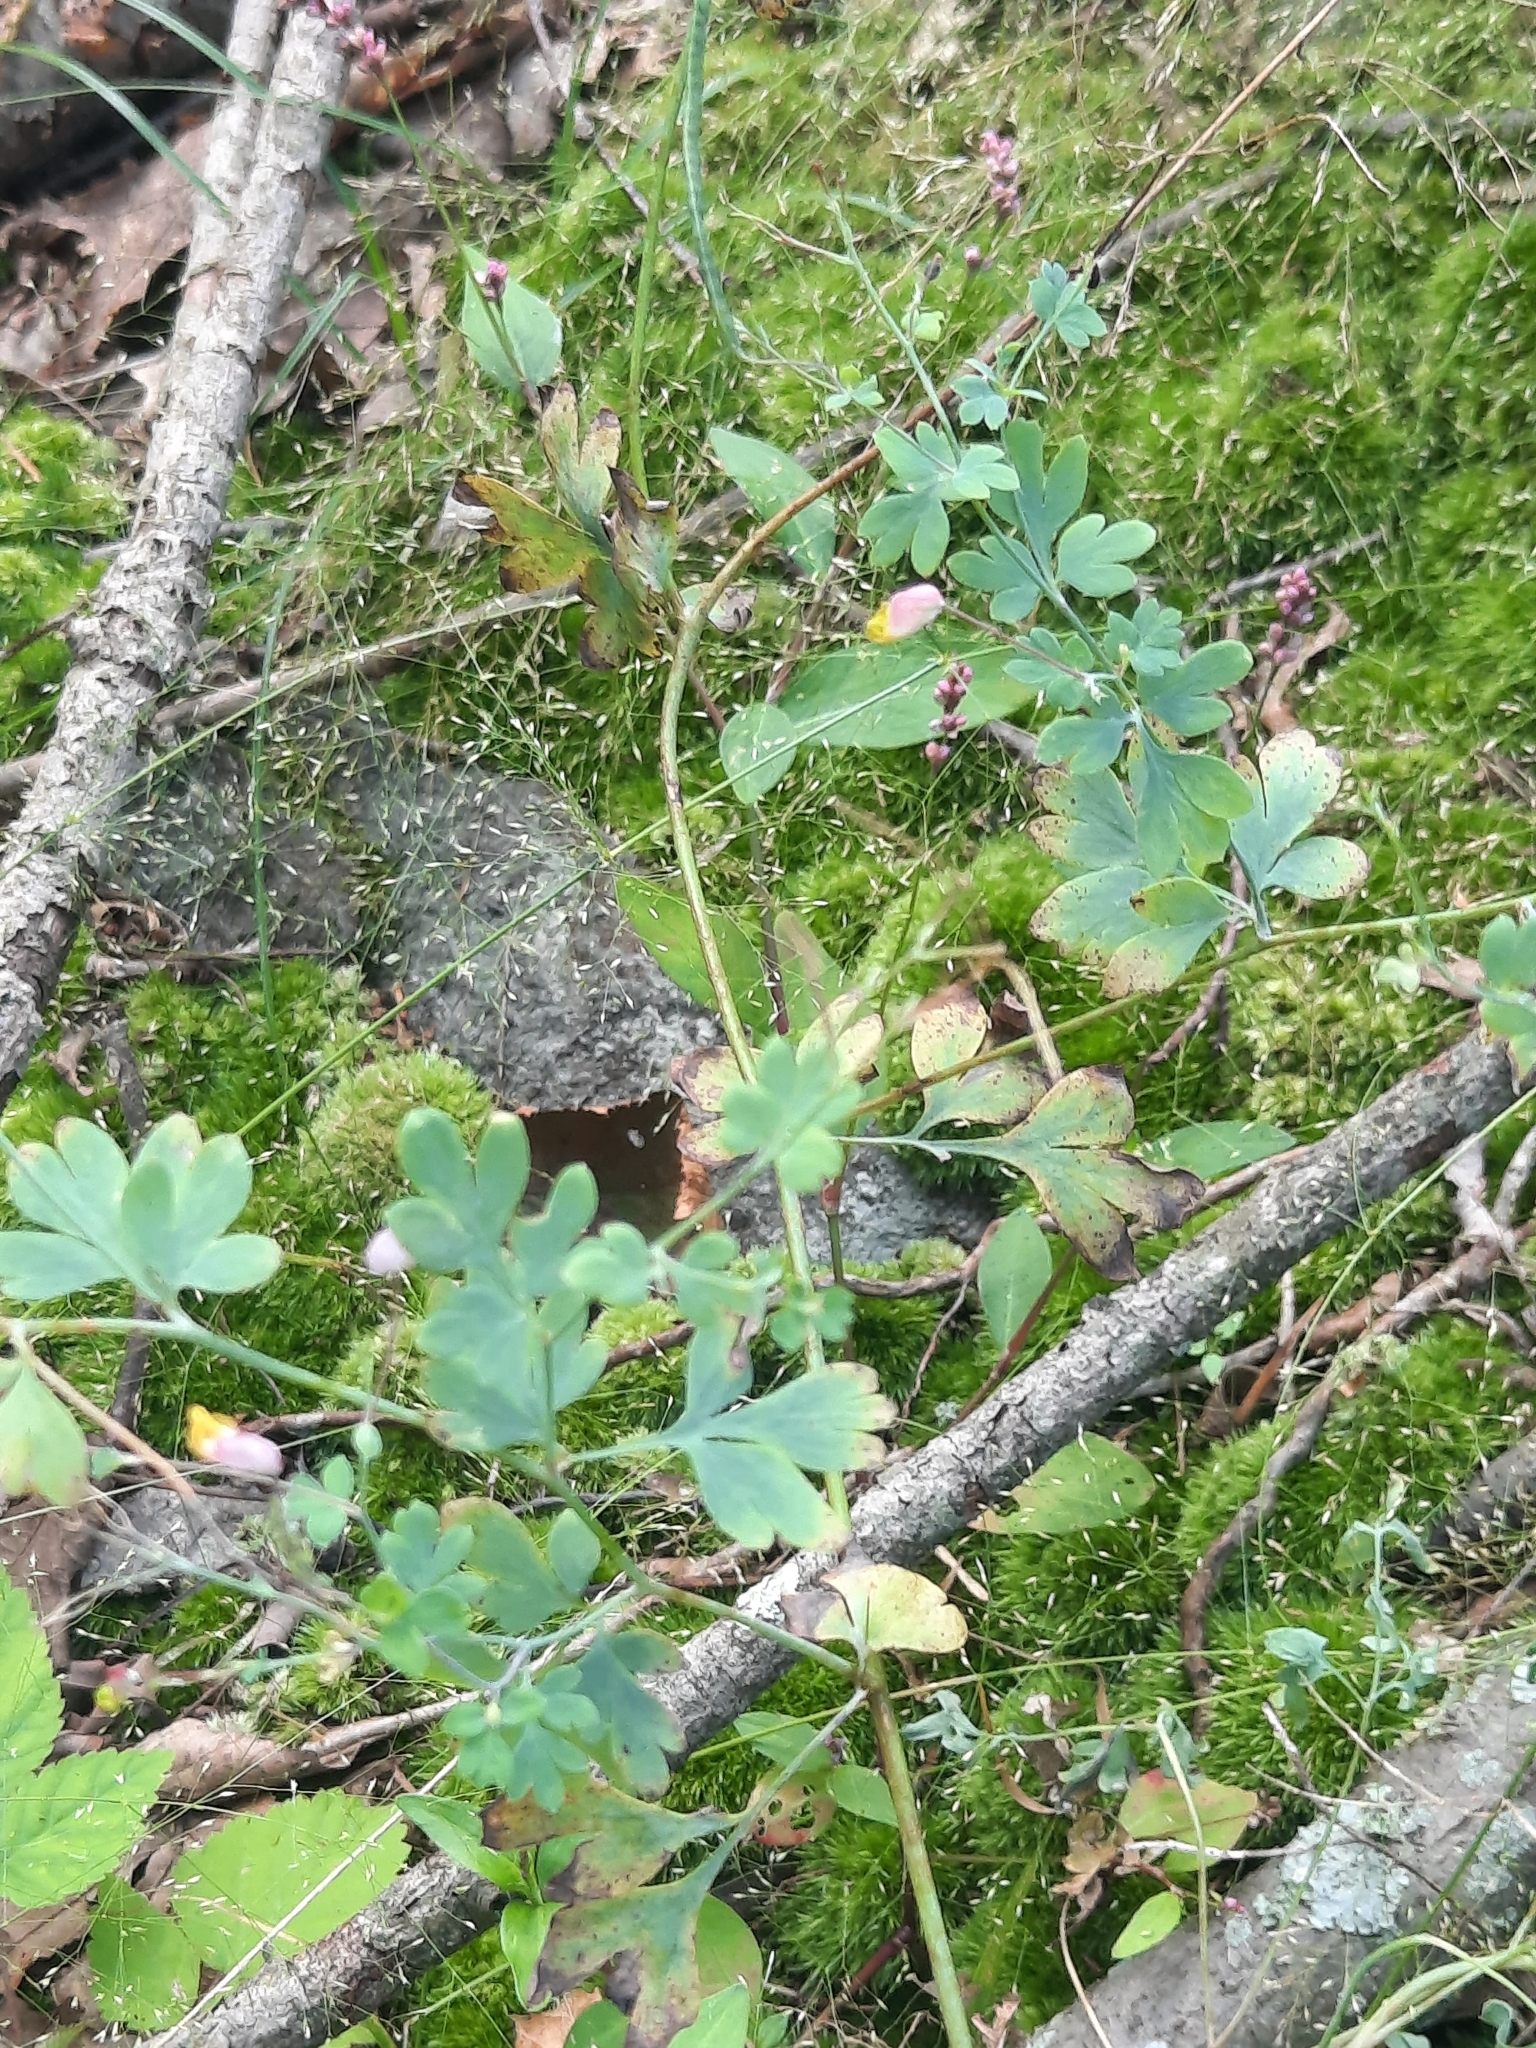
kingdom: Plantae
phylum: Tracheophyta
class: Magnoliopsida
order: Ranunculales
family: Papaveraceae
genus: Capnoides
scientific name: Capnoides sempervirens
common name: Rock harlequin
